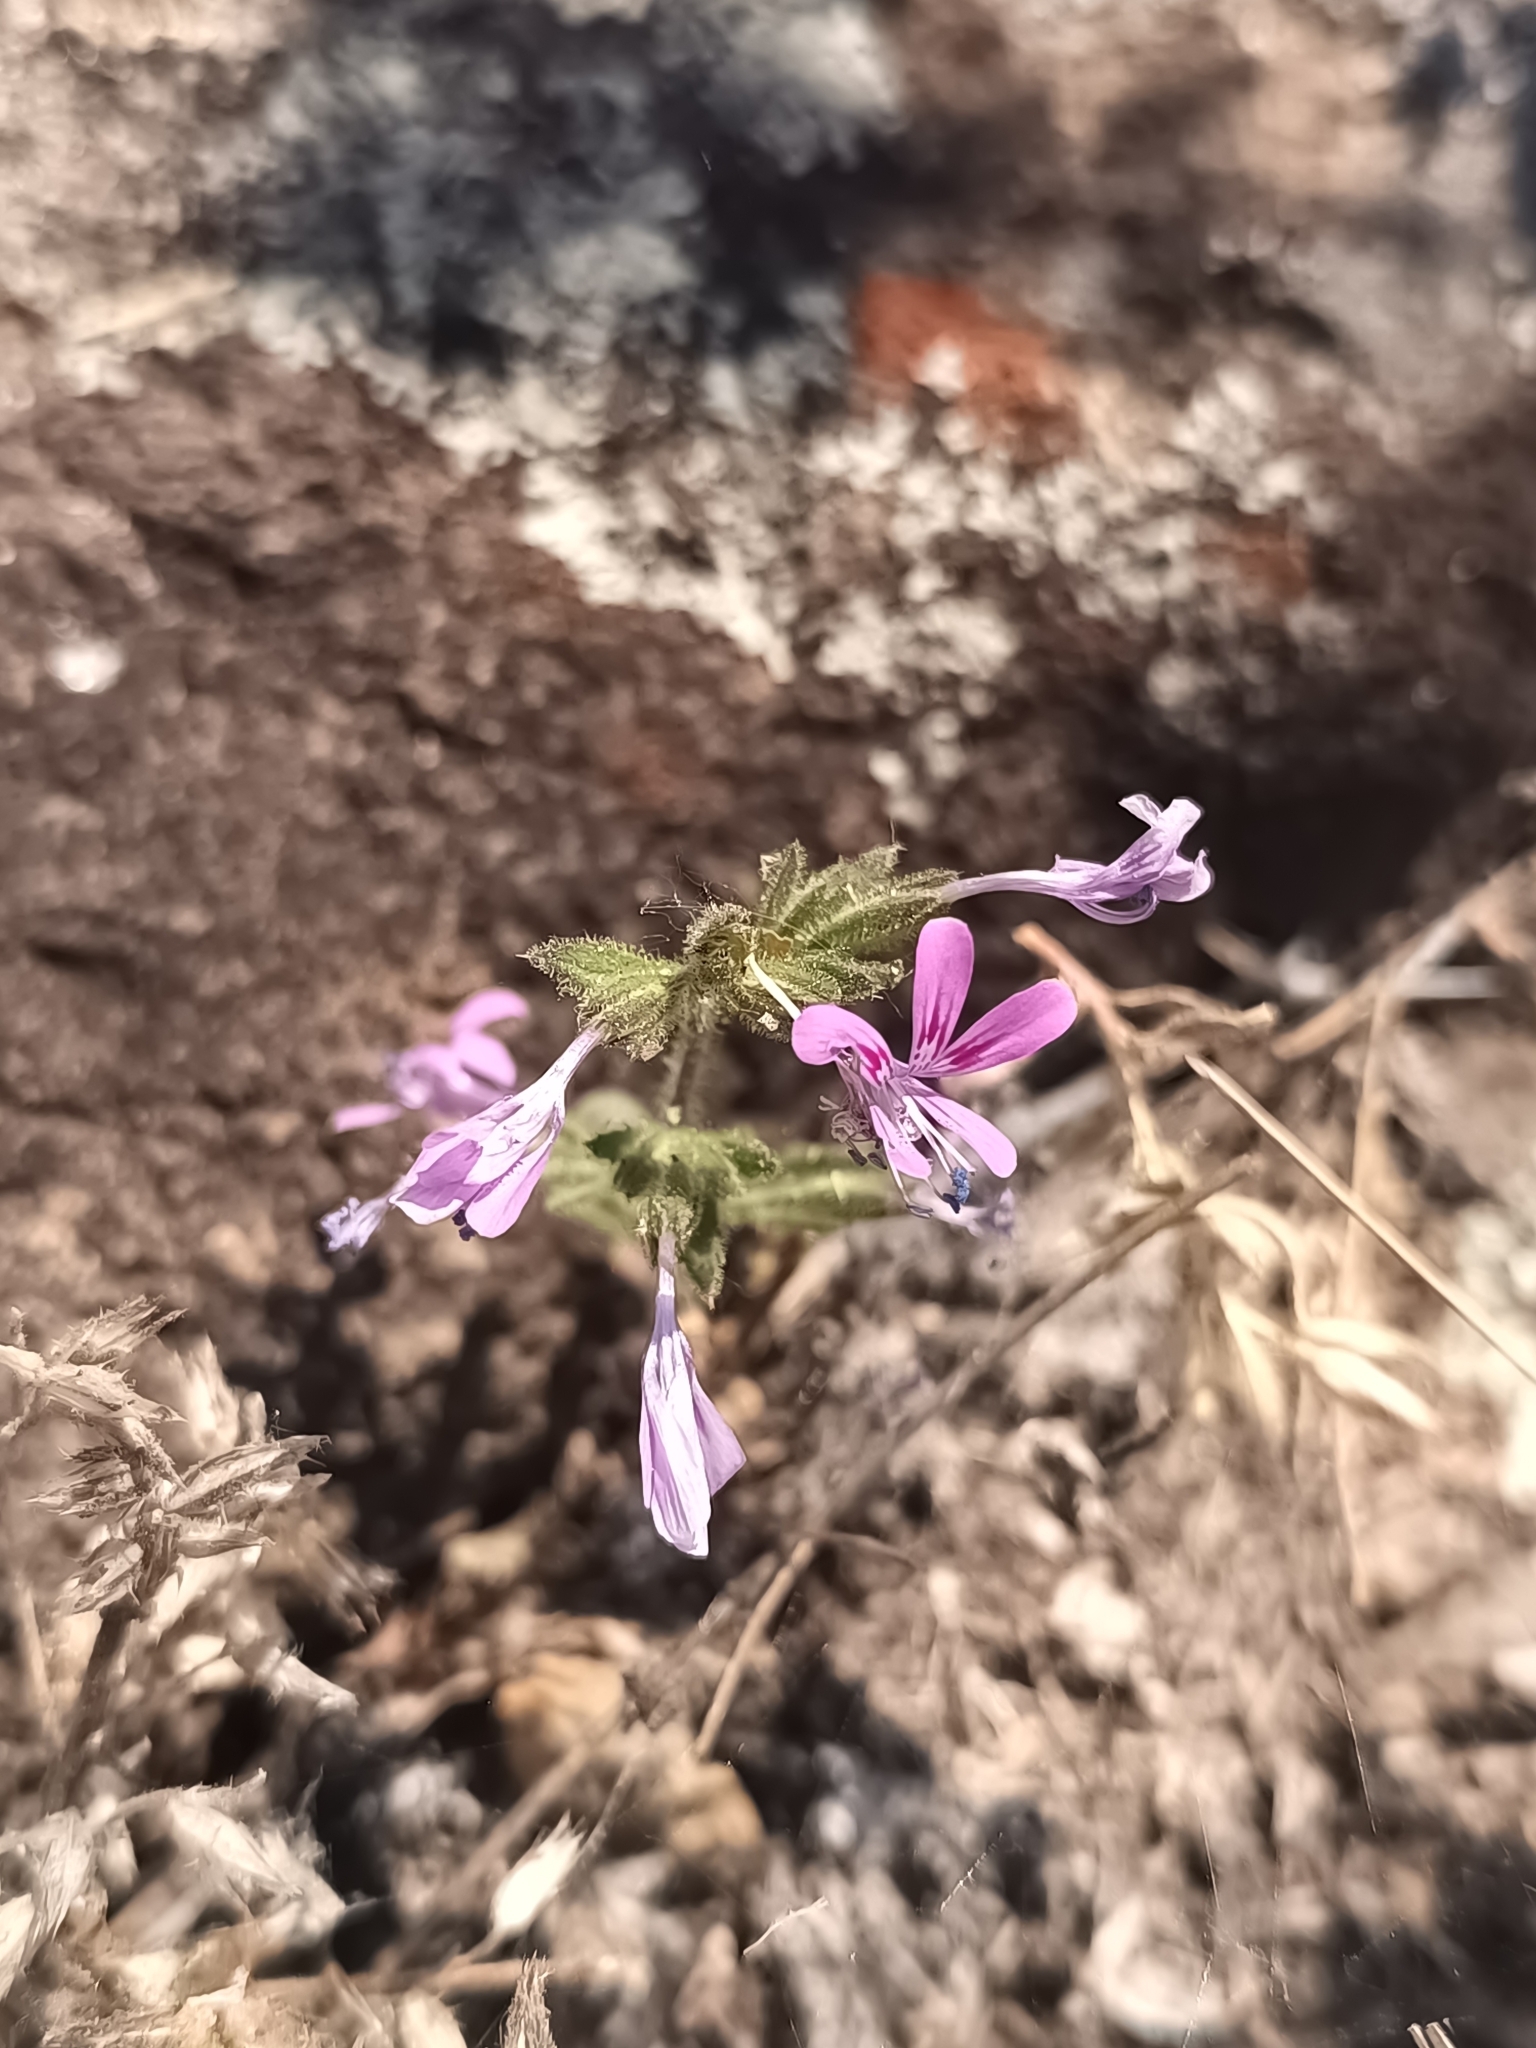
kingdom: Plantae
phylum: Tracheophyta
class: Magnoliopsida
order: Ericales
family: Polemoniaceae
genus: Loeselia
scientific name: Loeselia glandulosa
